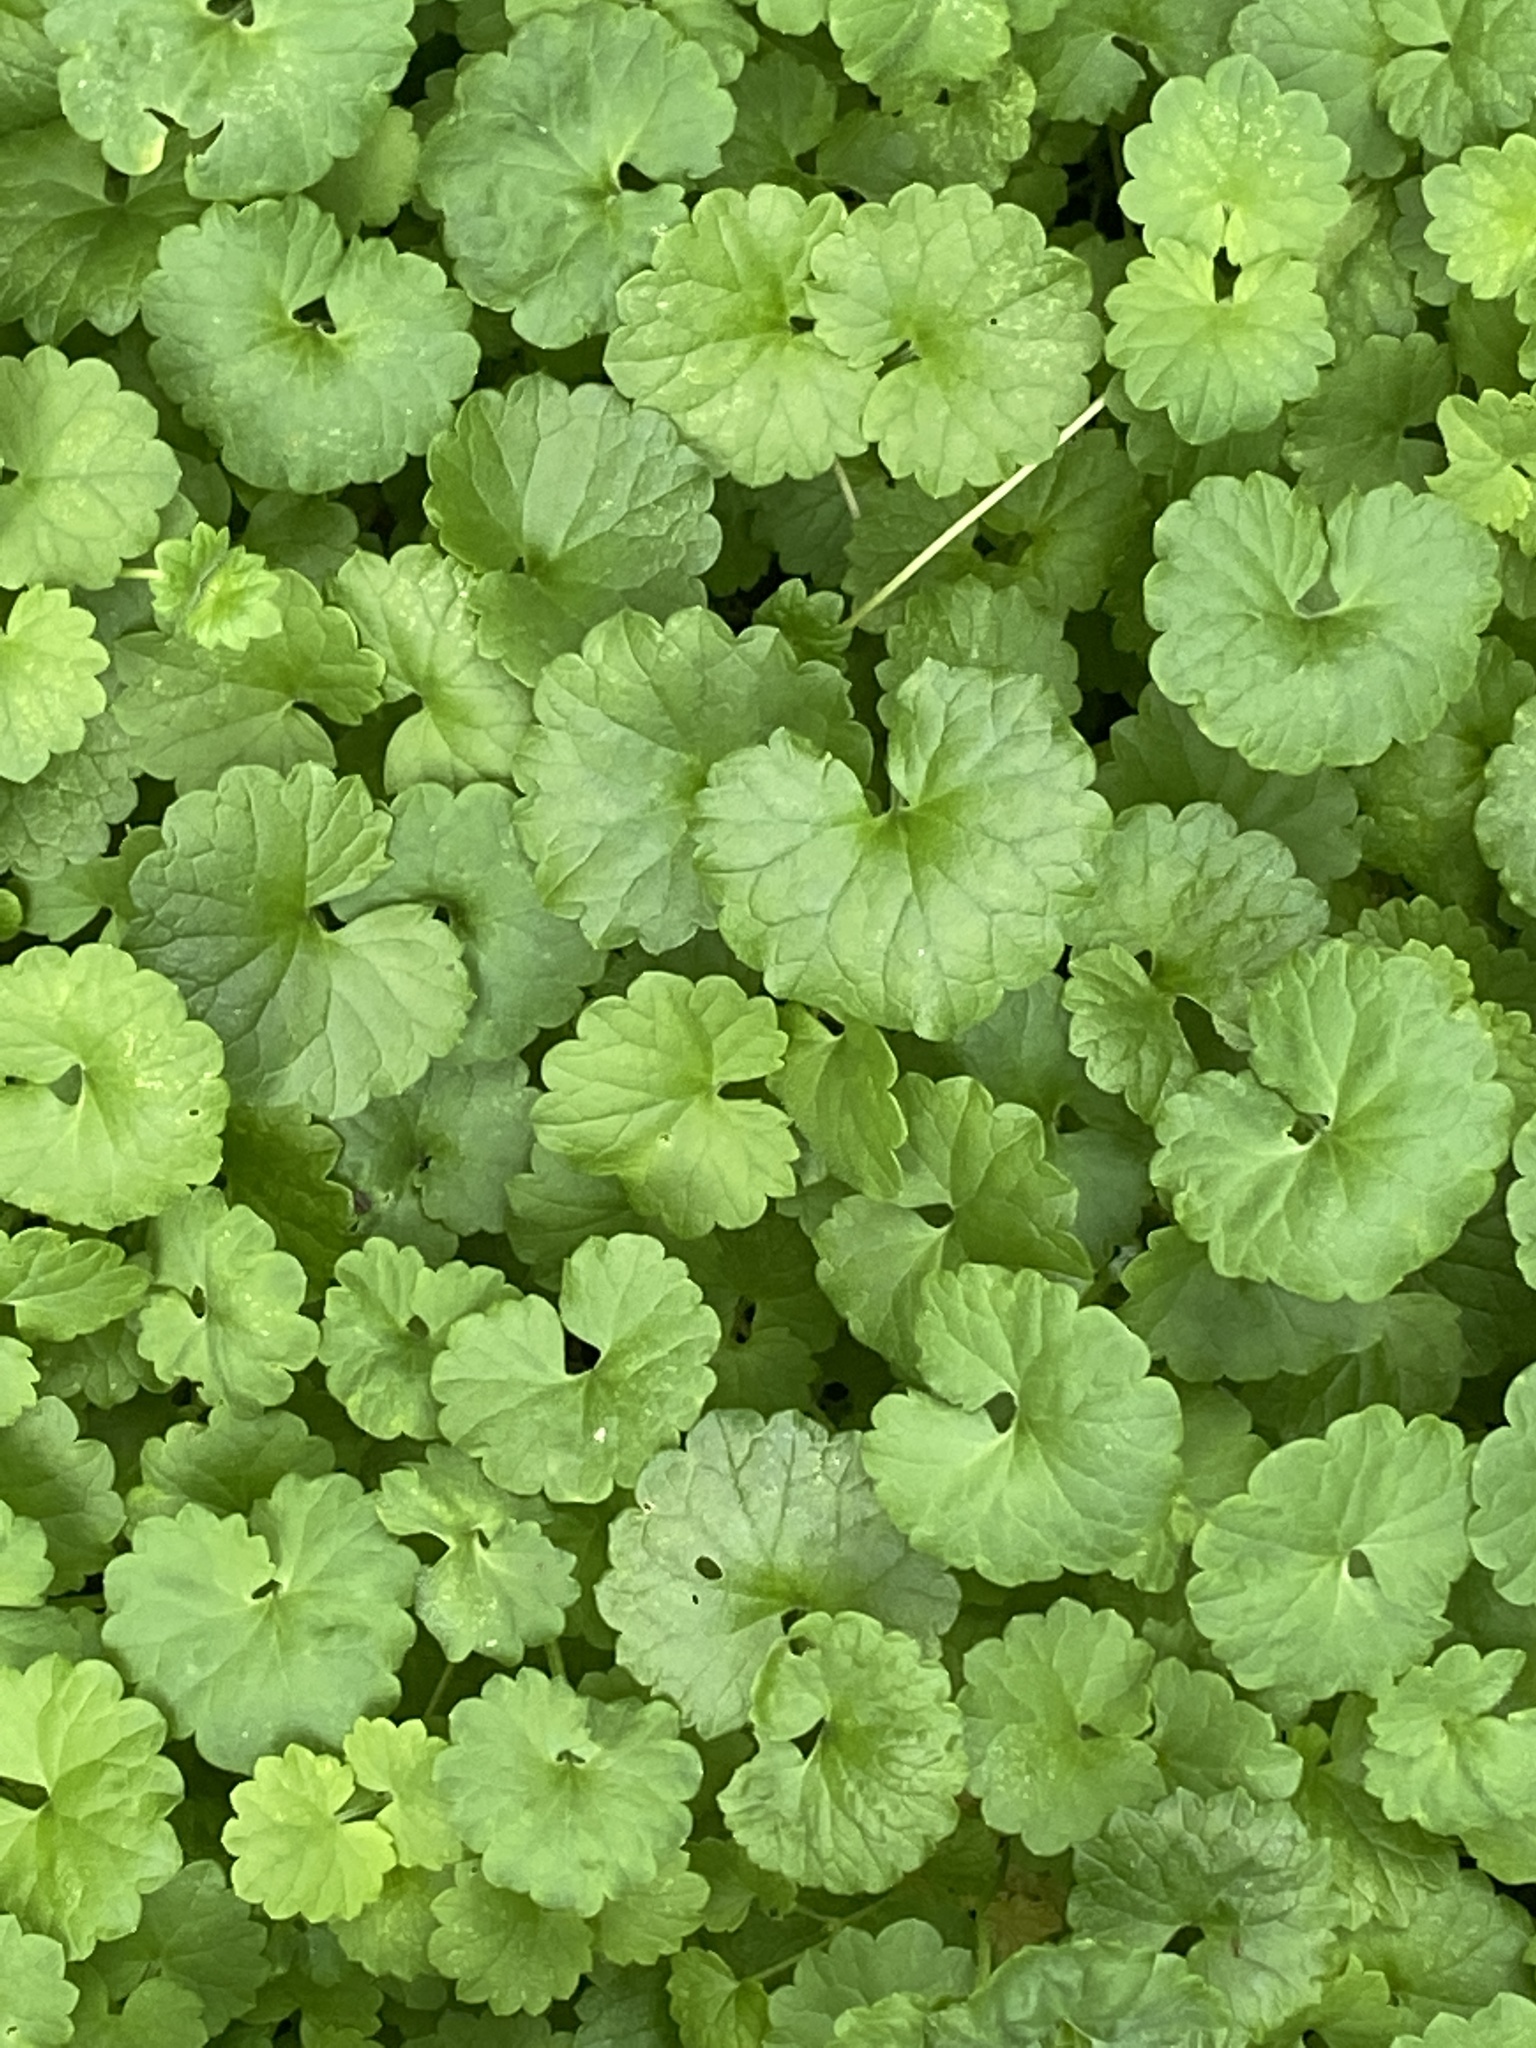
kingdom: Plantae
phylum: Tracheophyta
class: Magnoliopsida
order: Lamiales
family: Lamiaceae
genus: Glechoma
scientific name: Glechoma hederacea
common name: Ground ivy
